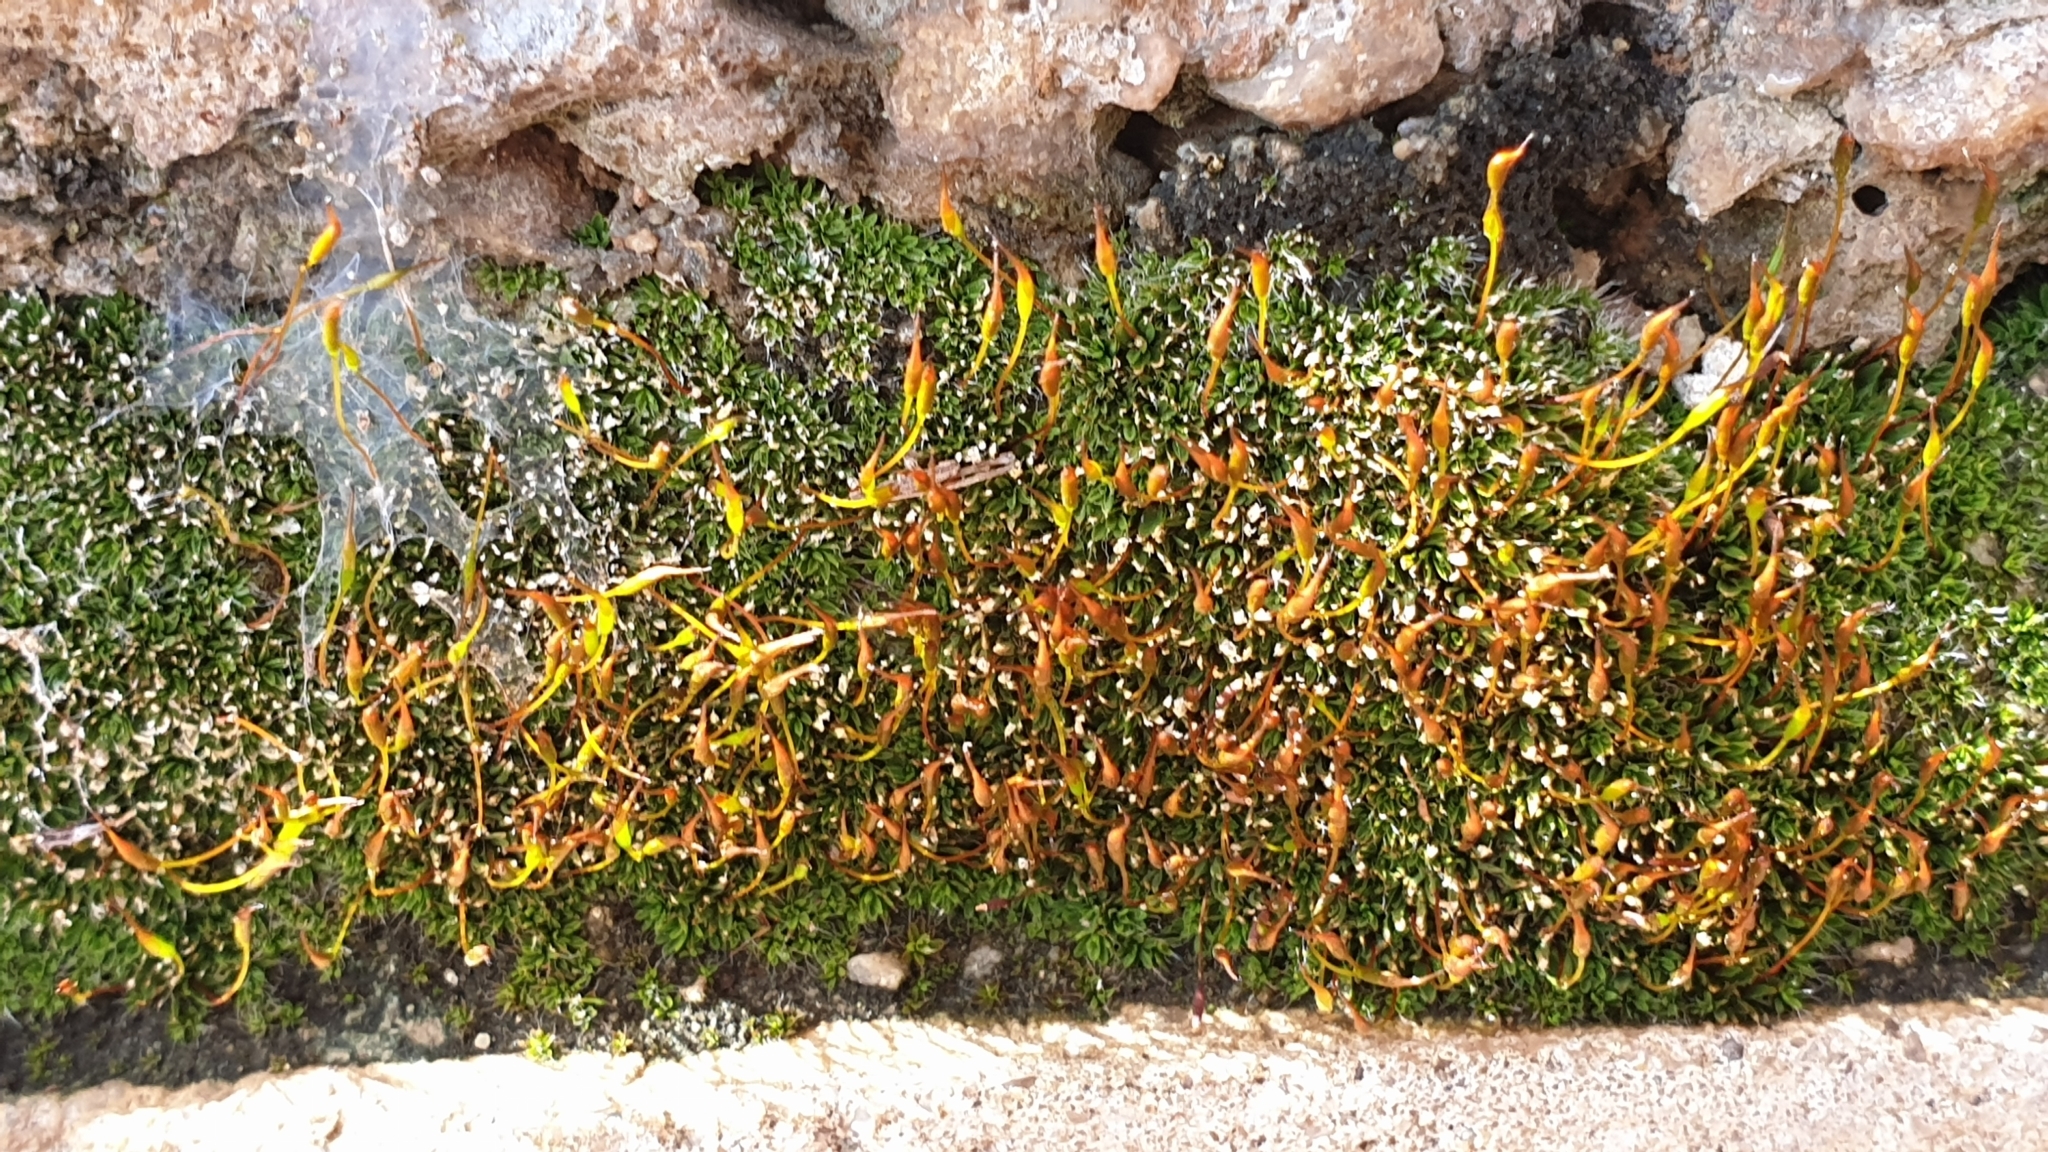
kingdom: Plantae
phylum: Bryophyta
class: Bryopsida
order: Pottiales
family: Pottiaceae
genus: Tortula
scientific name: Tortula muralis
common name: Wall screw-moss
